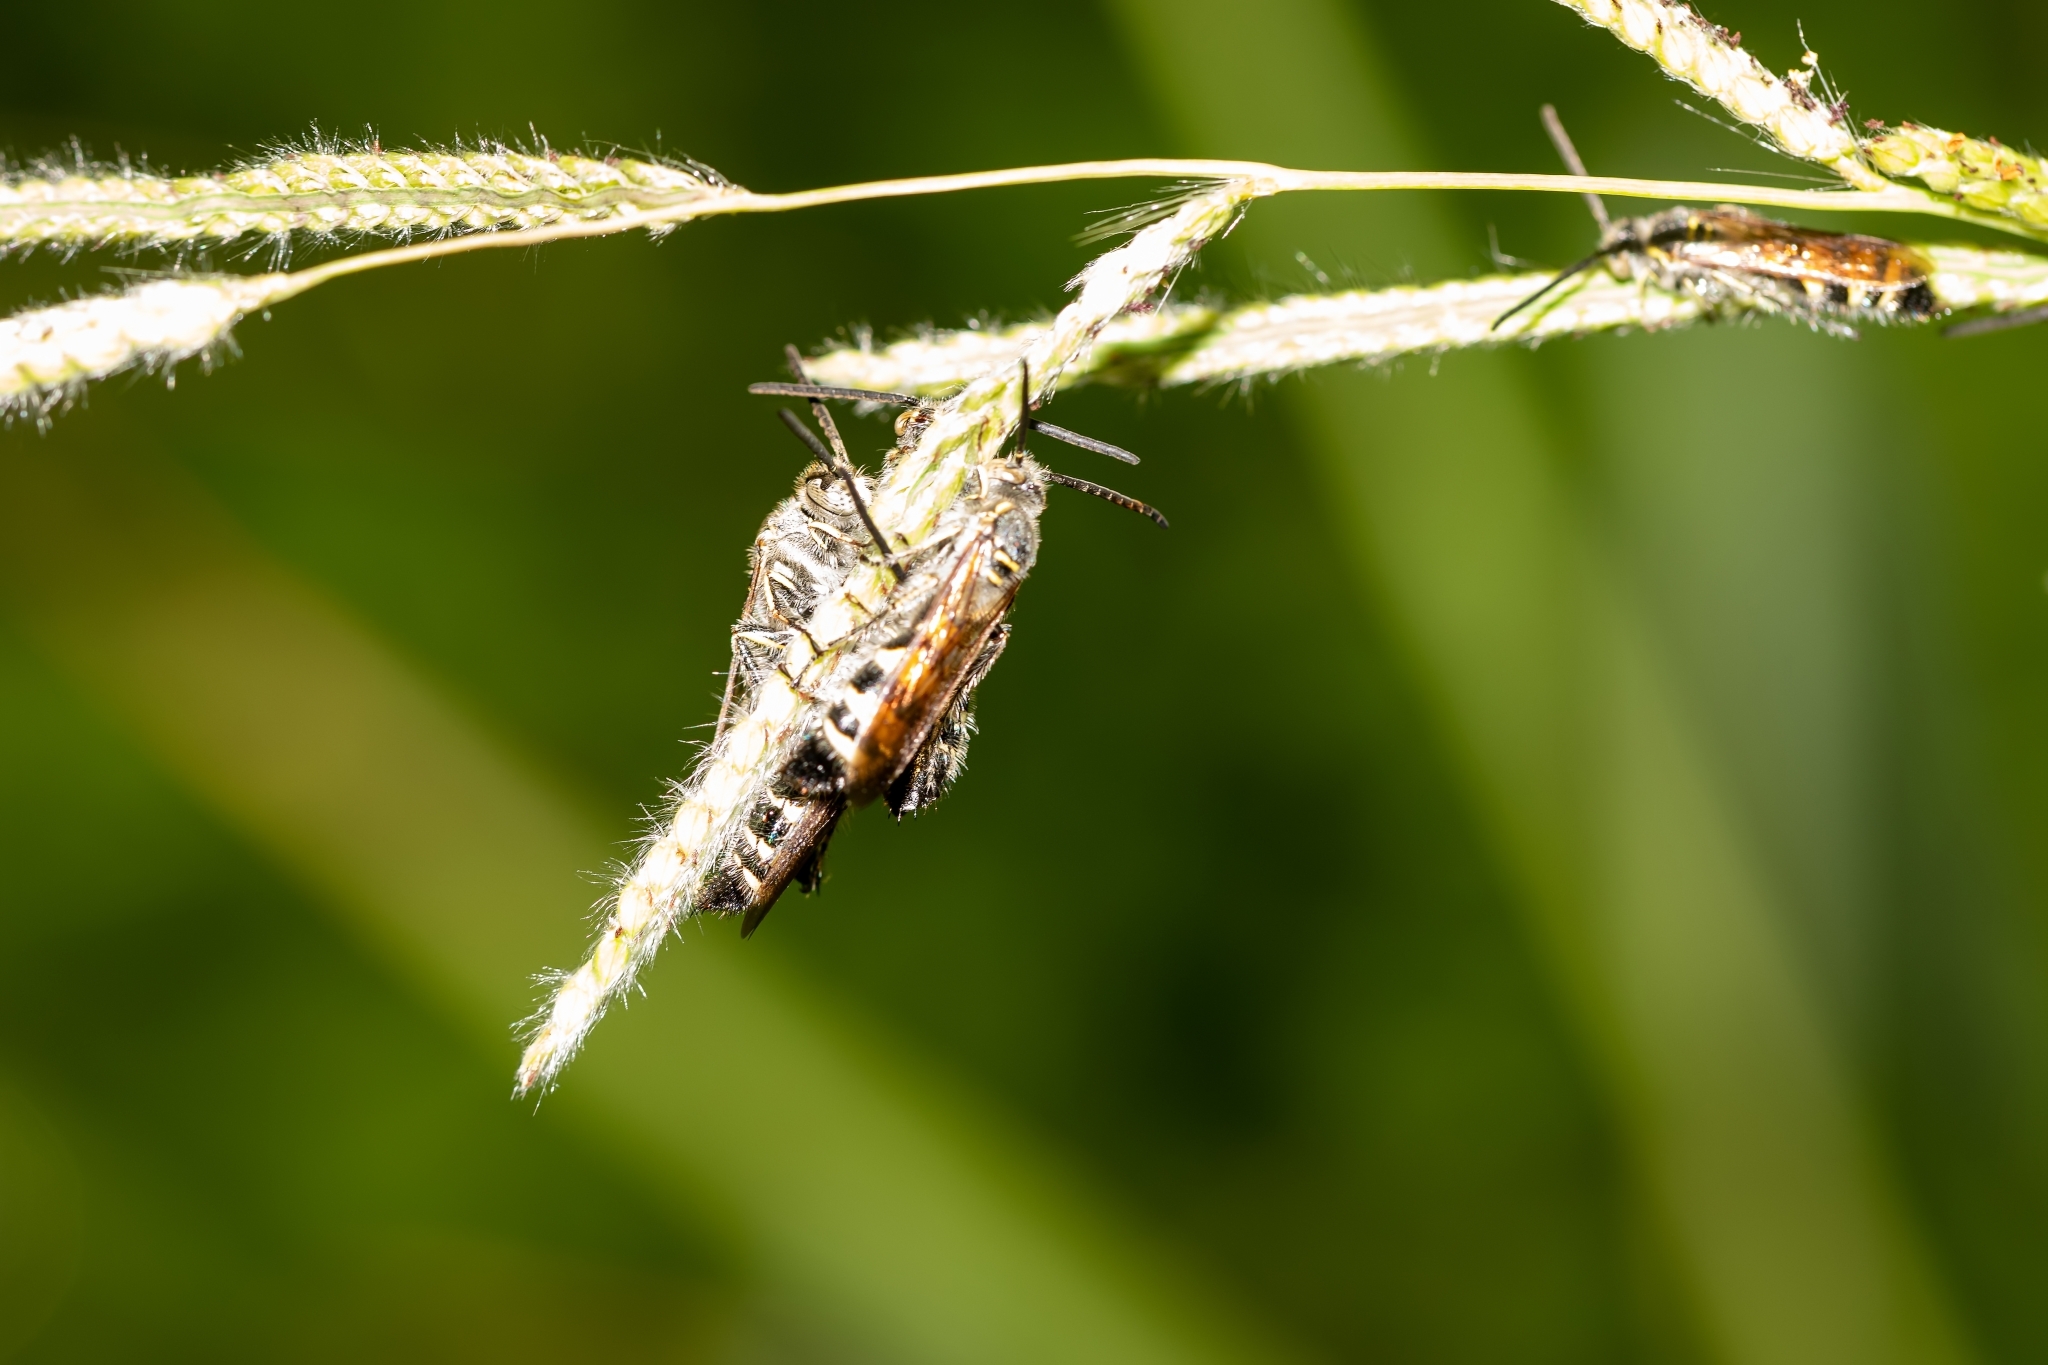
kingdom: Animalia
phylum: Arthropoda
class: Insecta
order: Hymenoptera
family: Scoliidae
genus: Dielis
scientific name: Dielis
